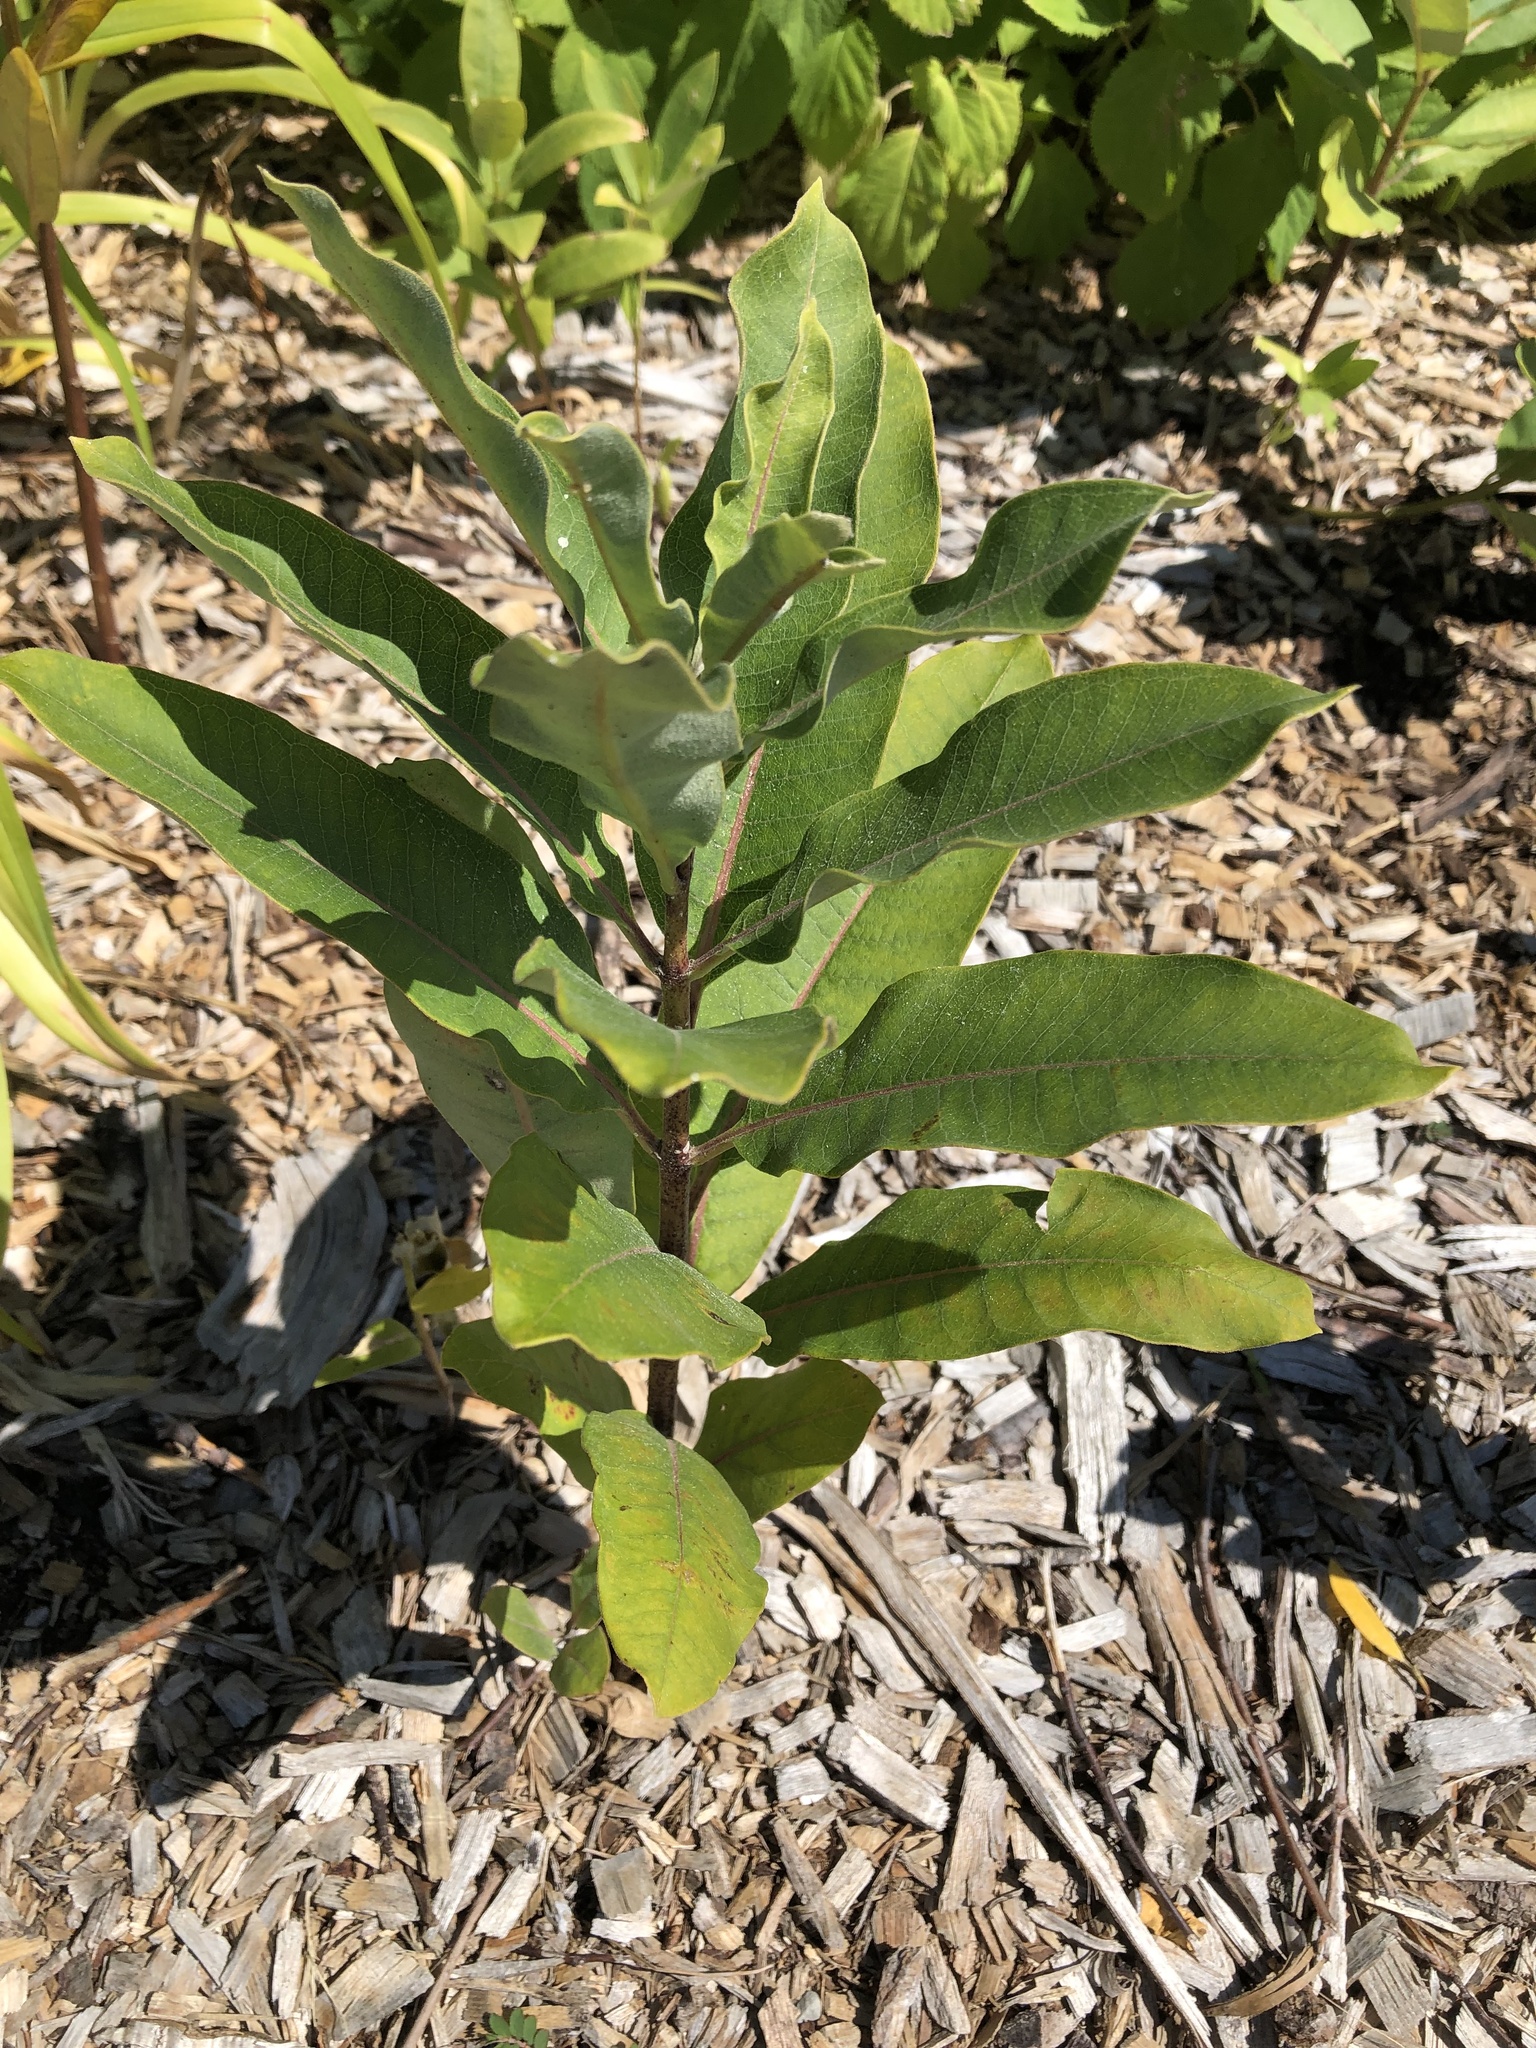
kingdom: Plantae
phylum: Tracheophyta
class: Magnoliopsida
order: Gentianales
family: Apocynaceae
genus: Asclepias
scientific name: Asclepias syriaca
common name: Common milkweed
